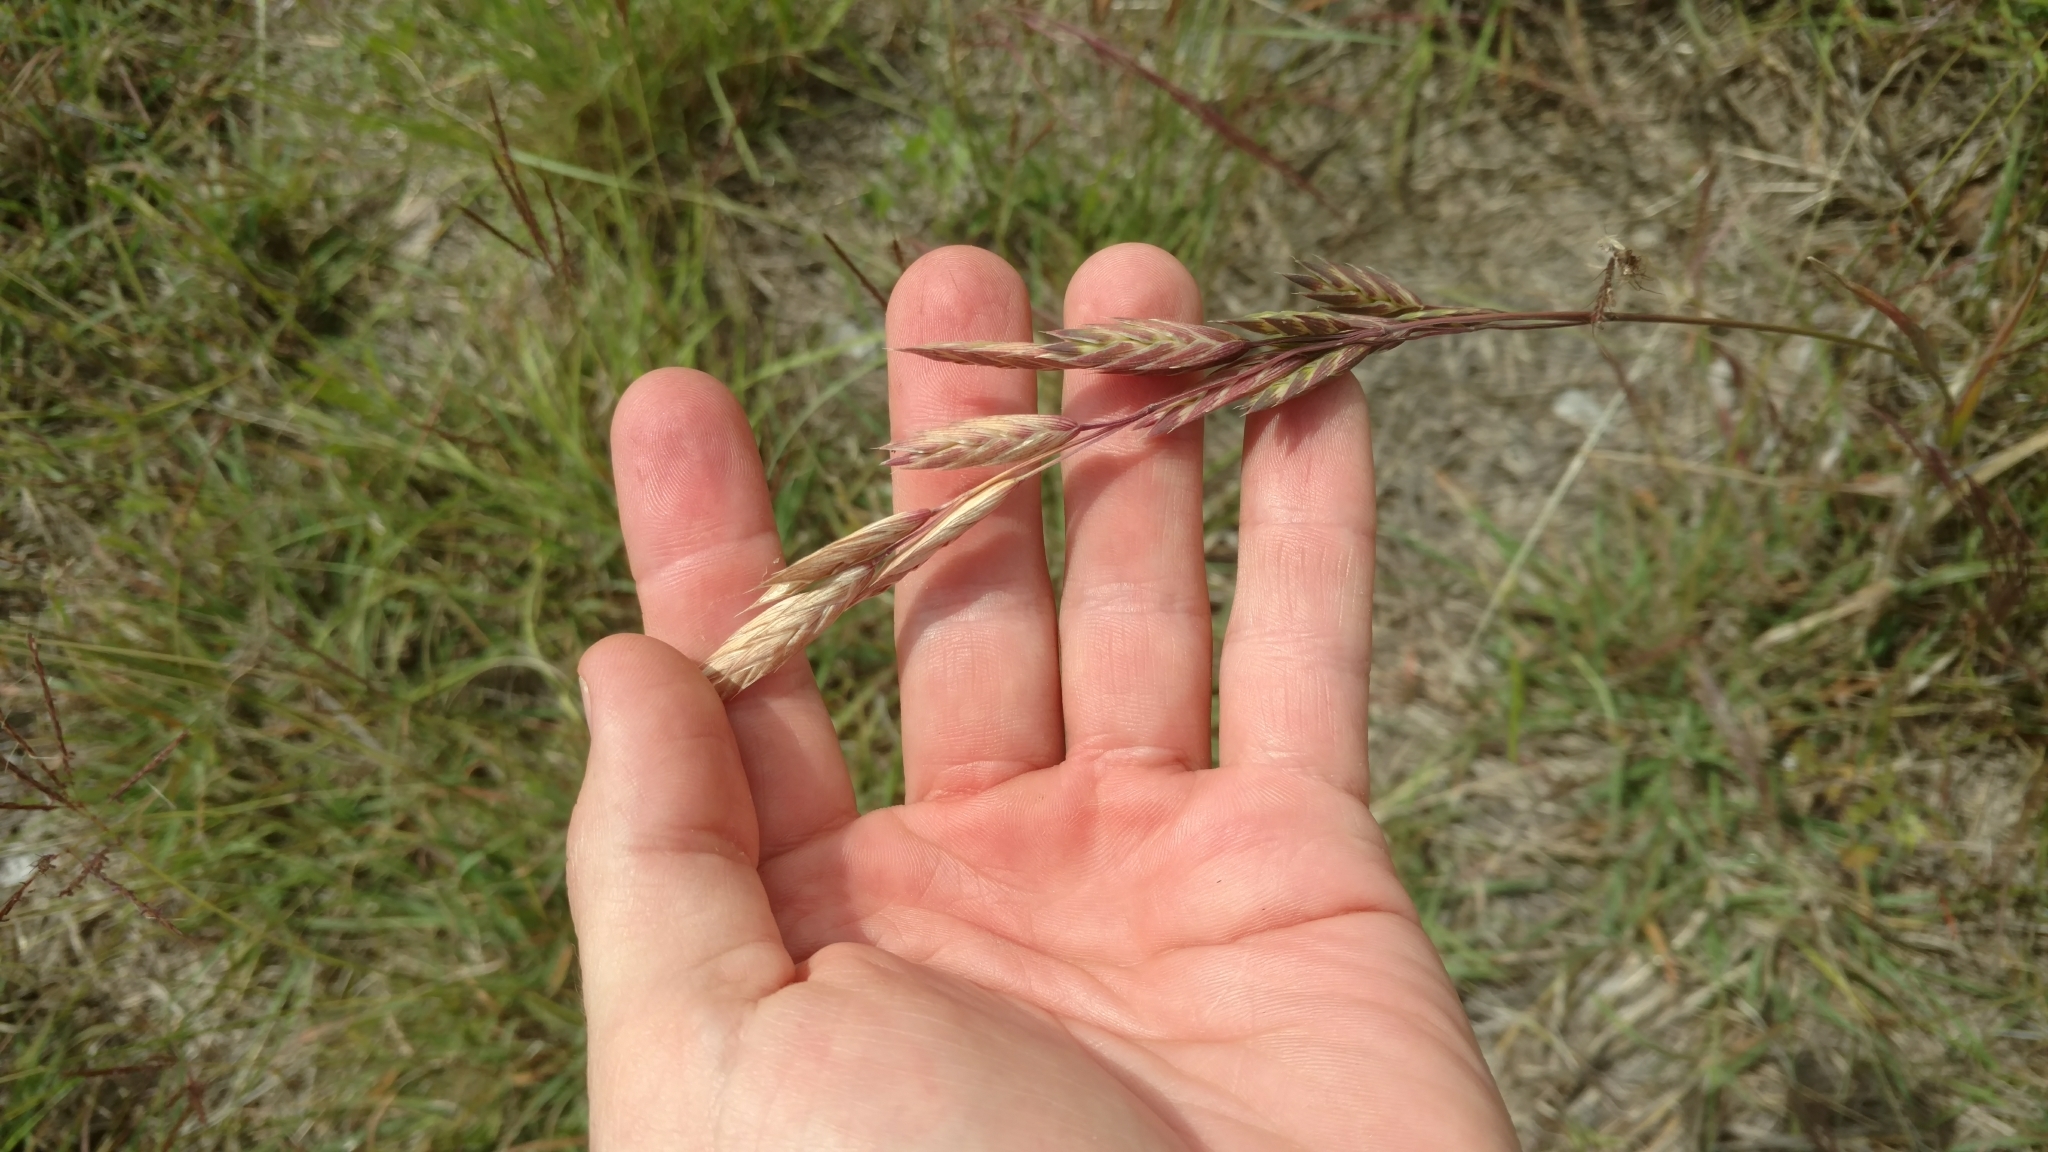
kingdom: Plantae
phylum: Tracheophyta
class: Liliopsida
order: Poales
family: Poaceae
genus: Bromus
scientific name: Bromus catharticus
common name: Rescuegrass
